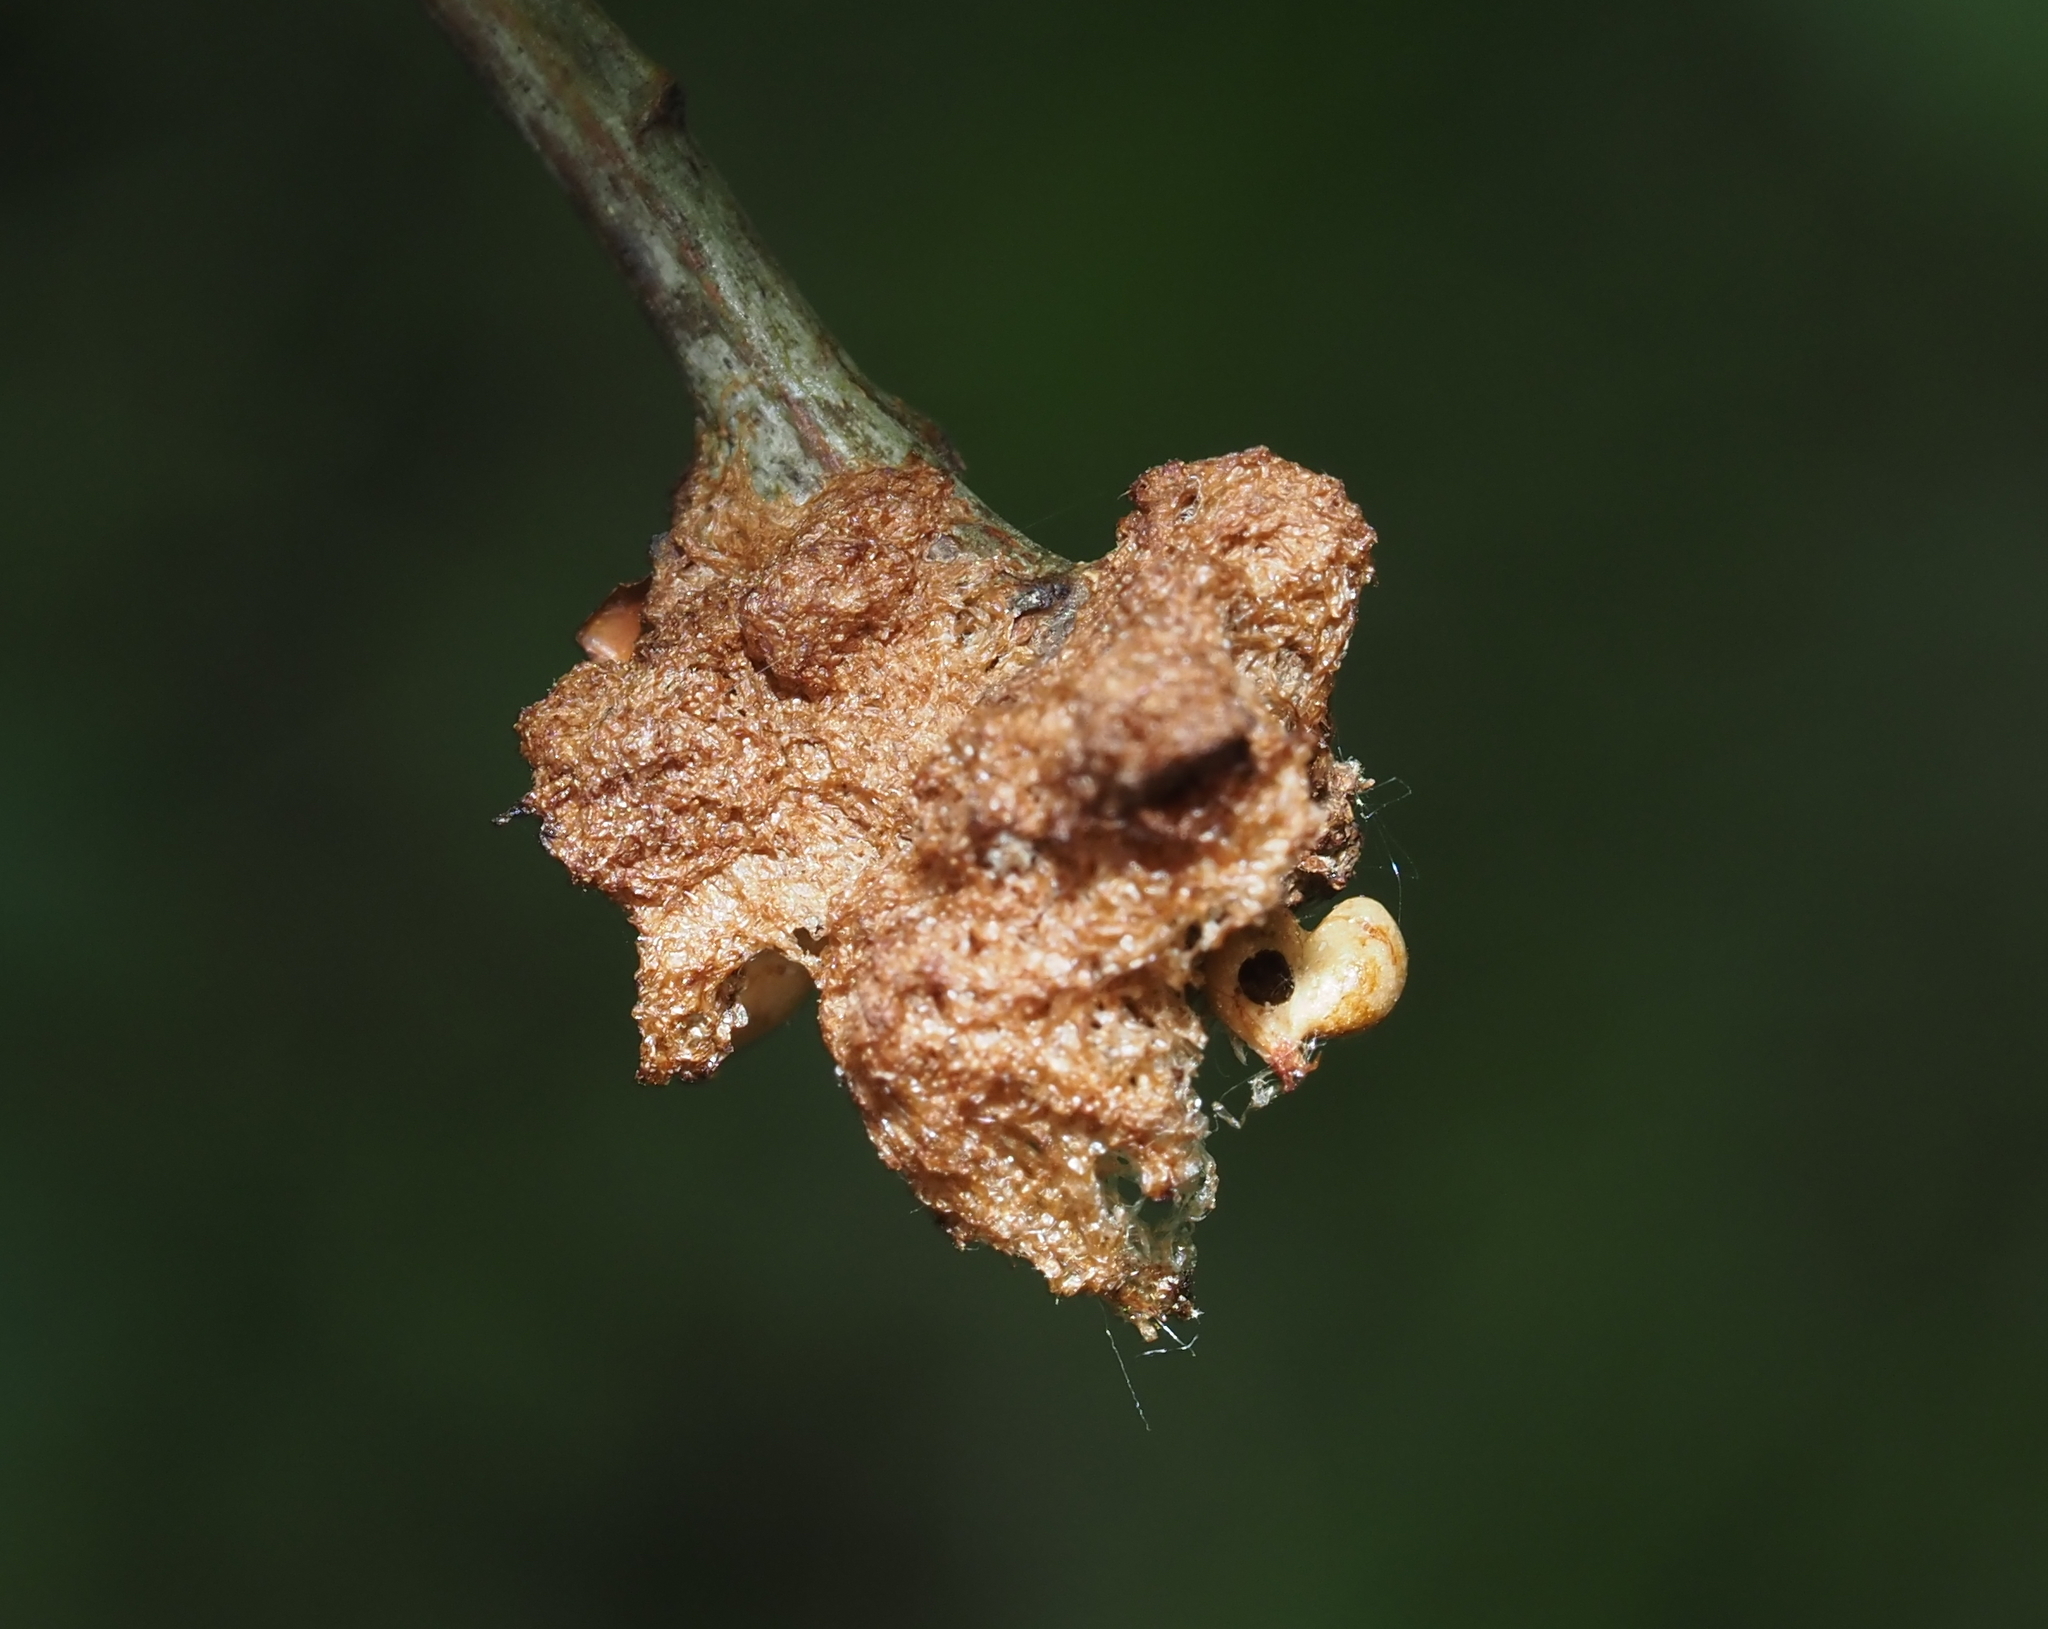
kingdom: Animalia
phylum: Arthropoda
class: Insecta
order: Hymenoptera
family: Cynipidae
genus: Callirhytis
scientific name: Callirhytis
